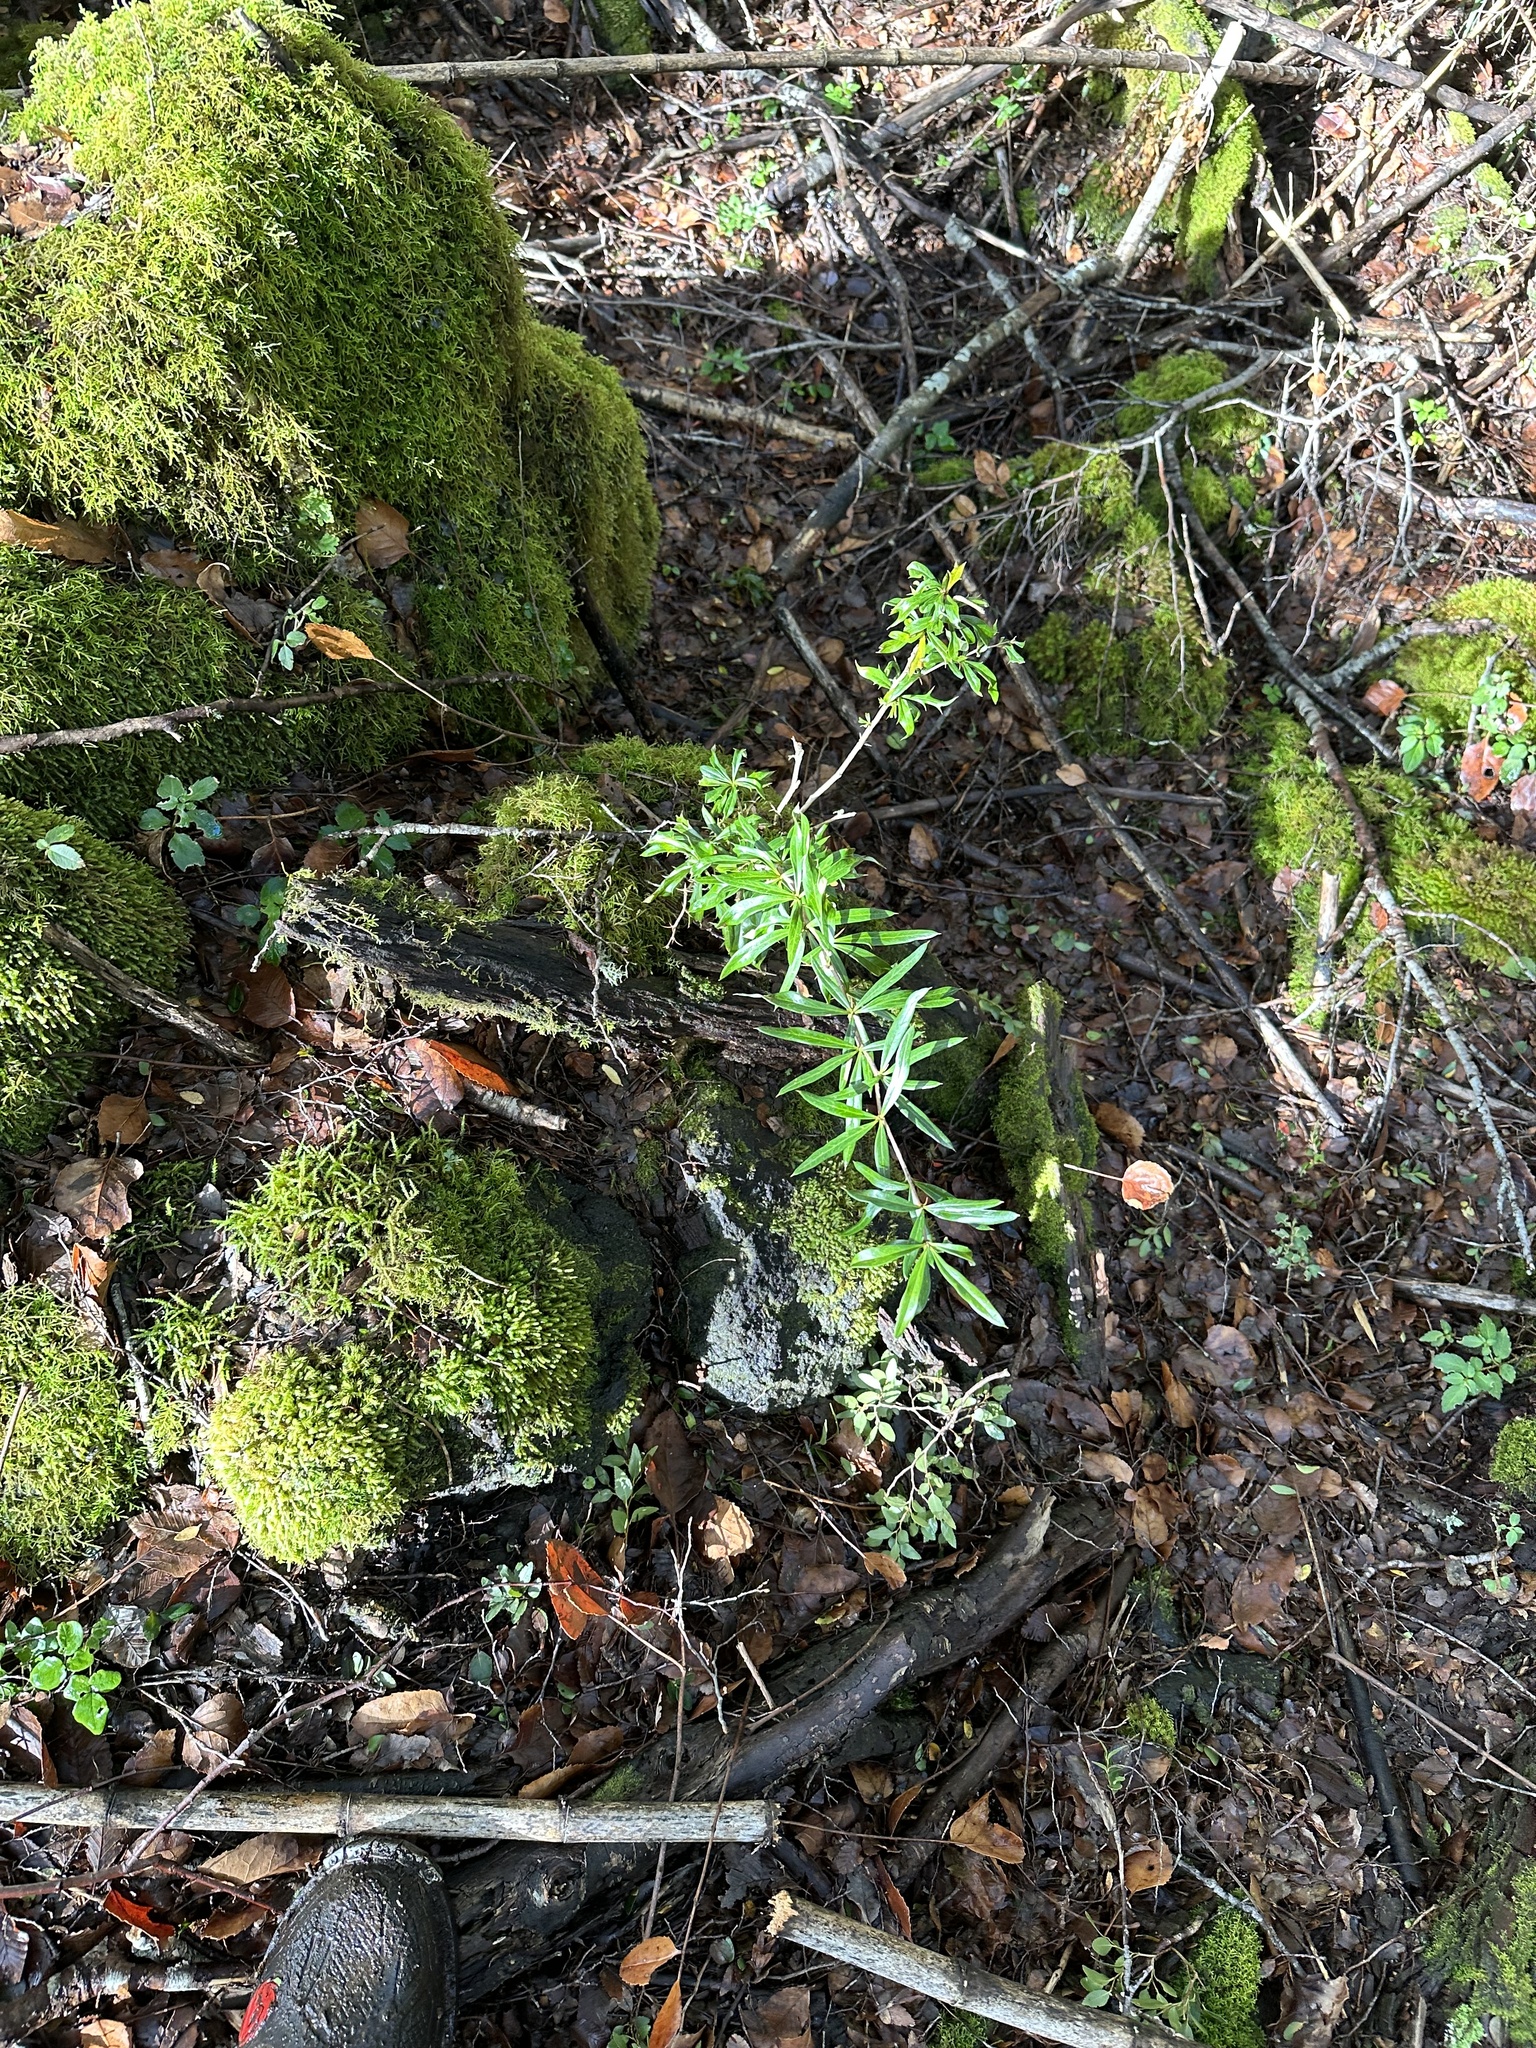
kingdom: Plantae
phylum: Tracheophyta
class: Magnoliopsida
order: Ranunculales
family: Berberidaceae
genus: Berberis
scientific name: Berberis trigona
